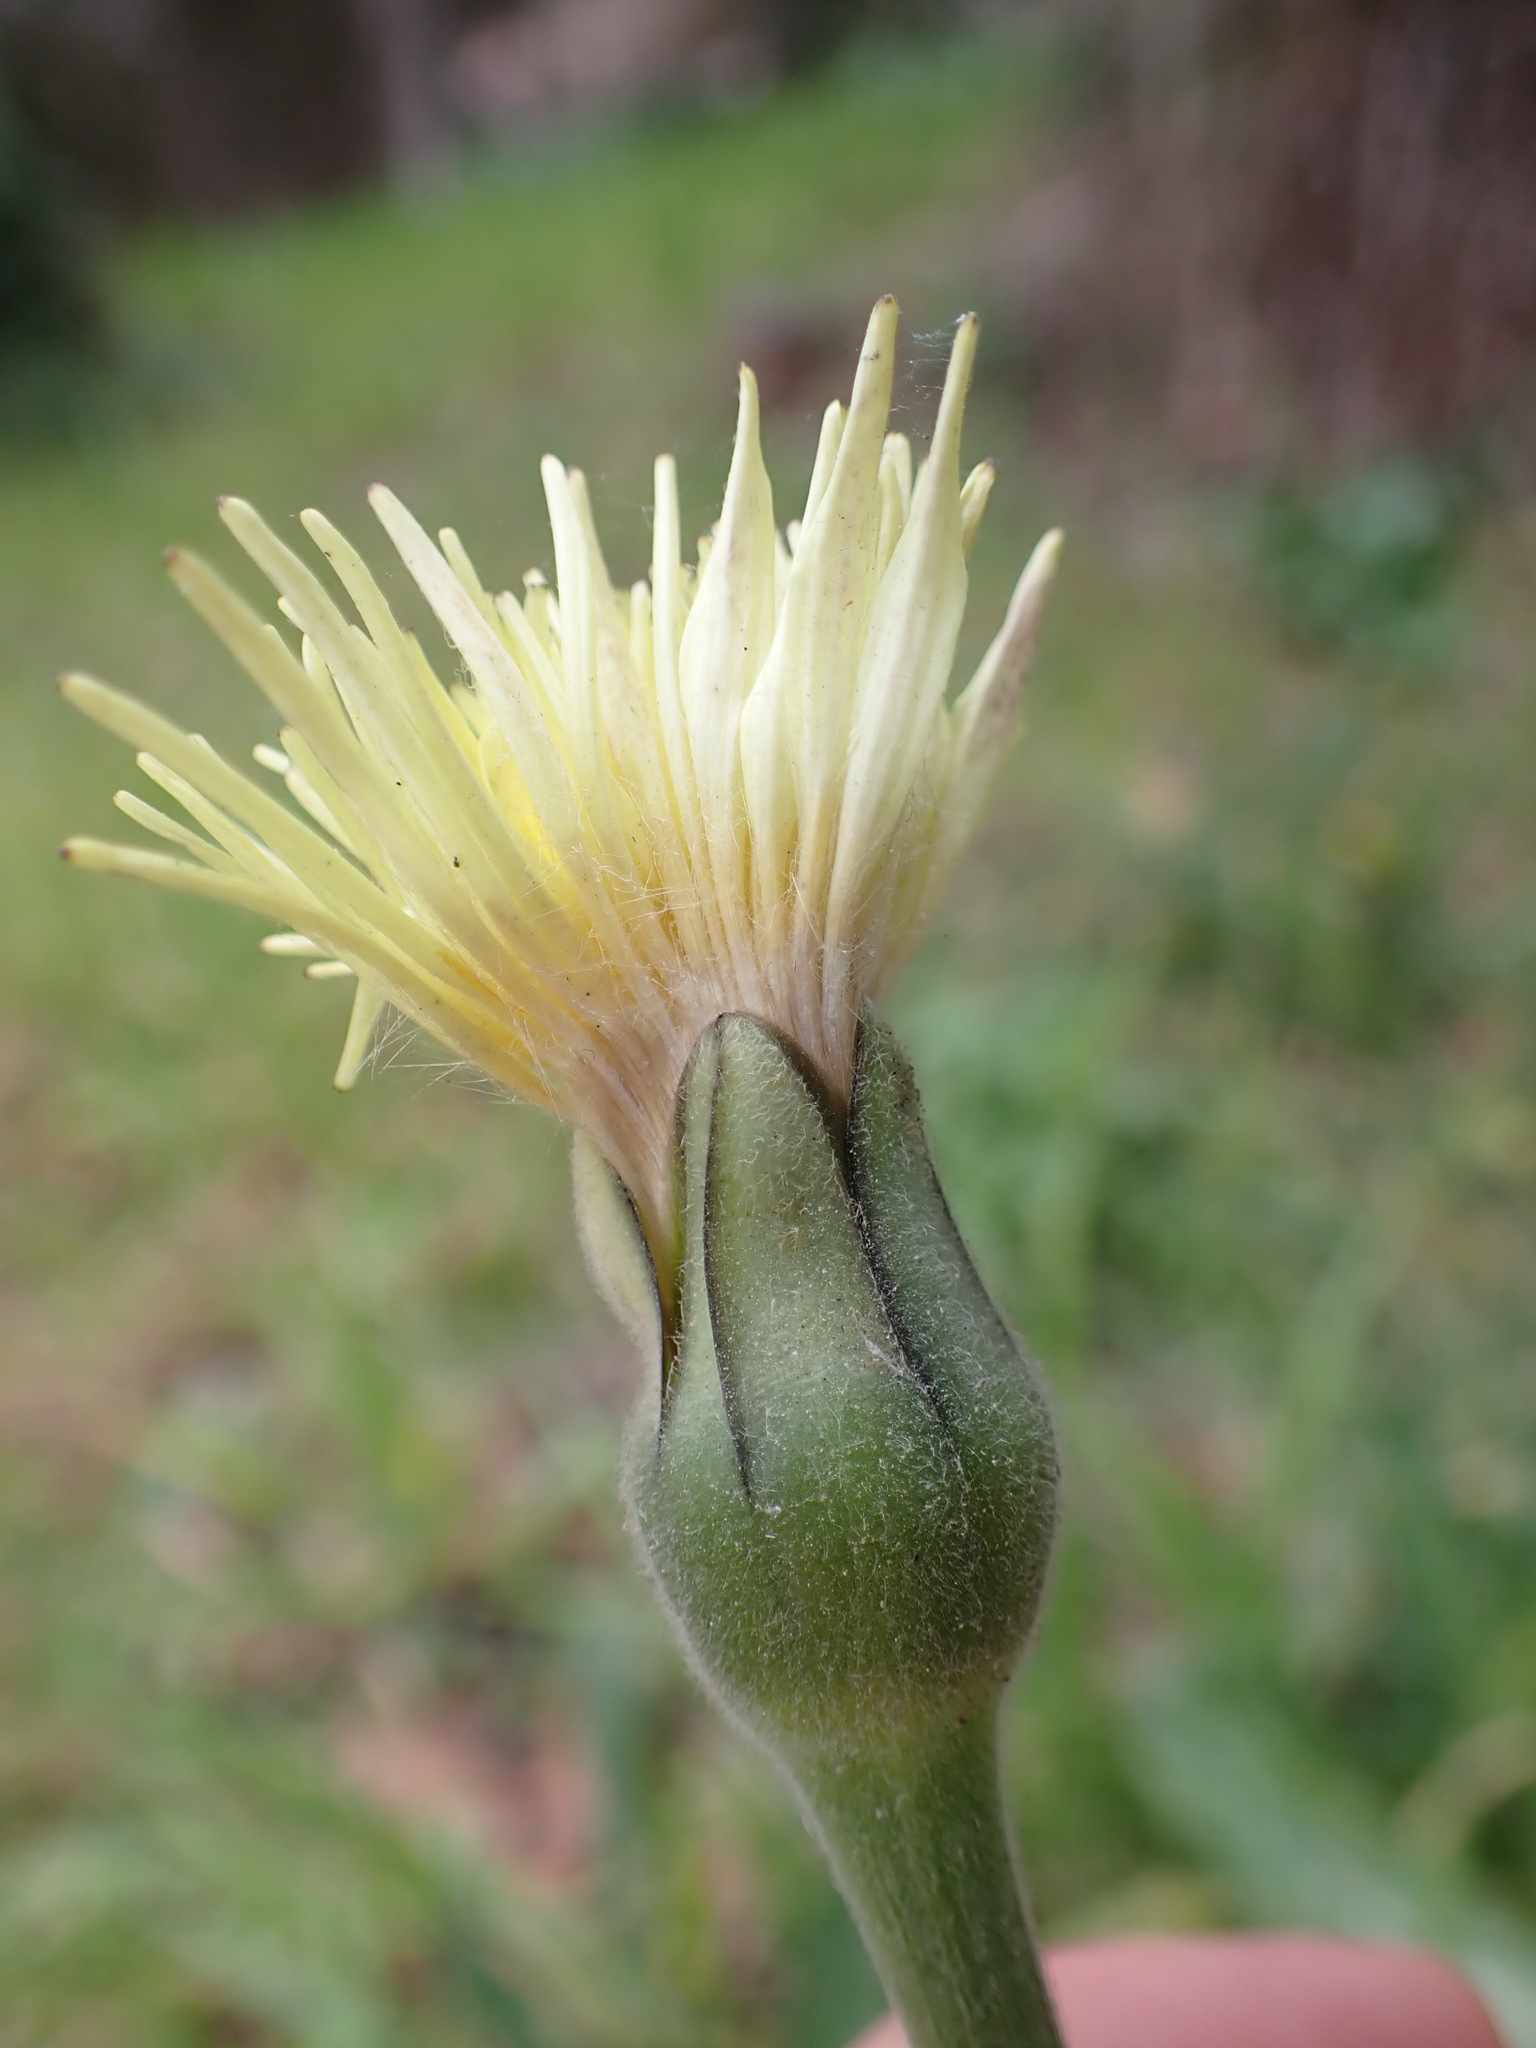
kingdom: Plantae
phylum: Tracheophyta
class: Magnoliopsida
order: Asterales
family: Asteraceae
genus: Urospermum
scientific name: Urospermum dalechampii
